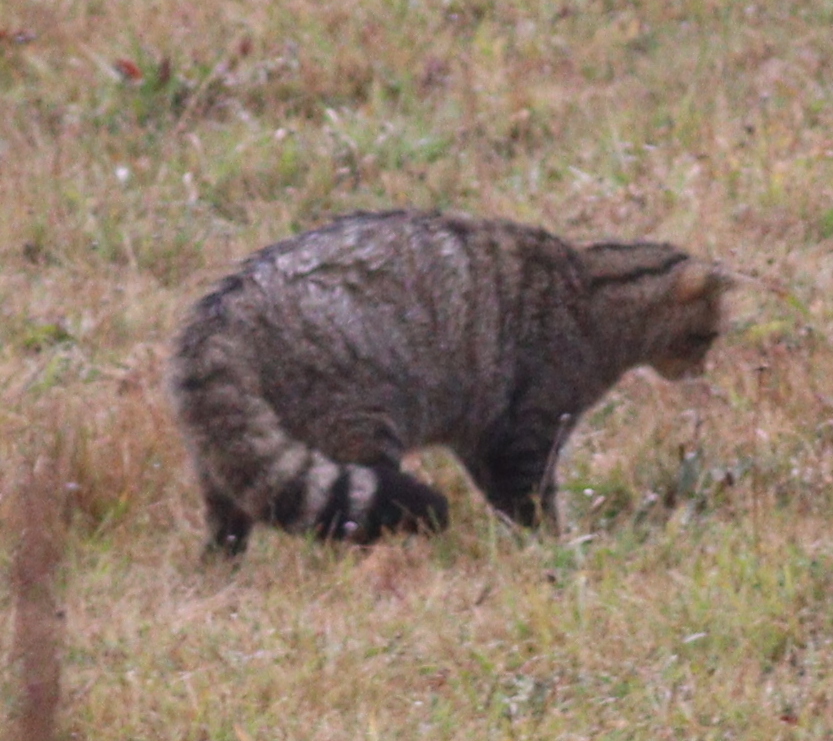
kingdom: Animalia
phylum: Chordata
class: Mammalia
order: Carnivora
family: Felidae
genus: Felis
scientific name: Felis silvestris
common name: Wildcat
